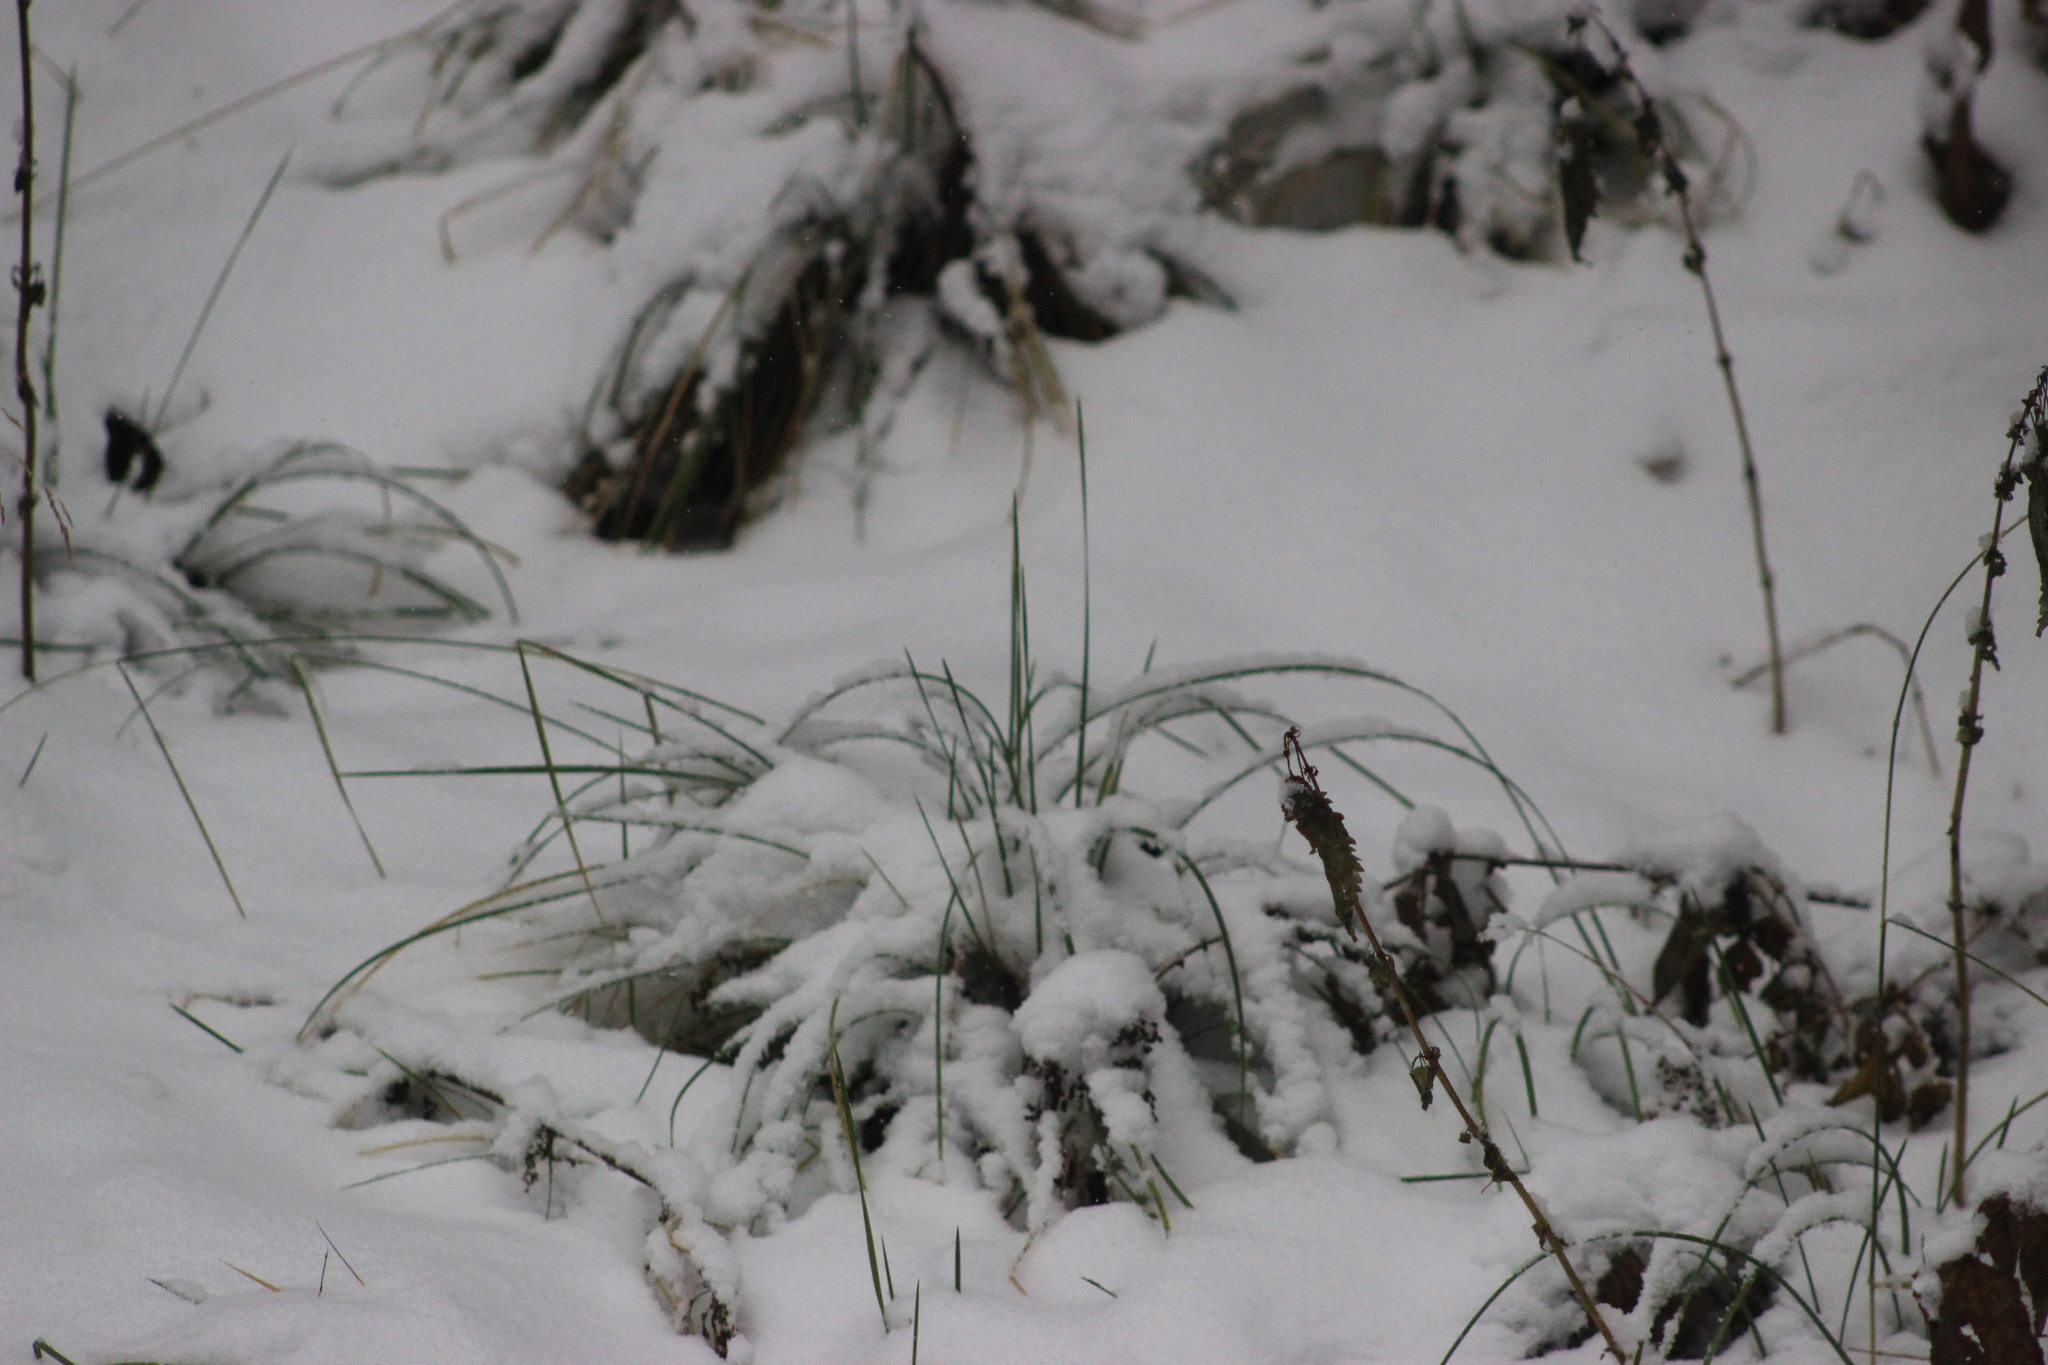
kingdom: Plantae
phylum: Tracheophyta
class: Liliopsida
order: Poales
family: Poaceae
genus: Deschampsia
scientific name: Deschampsia cespitosa
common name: Tufted hair-grass
